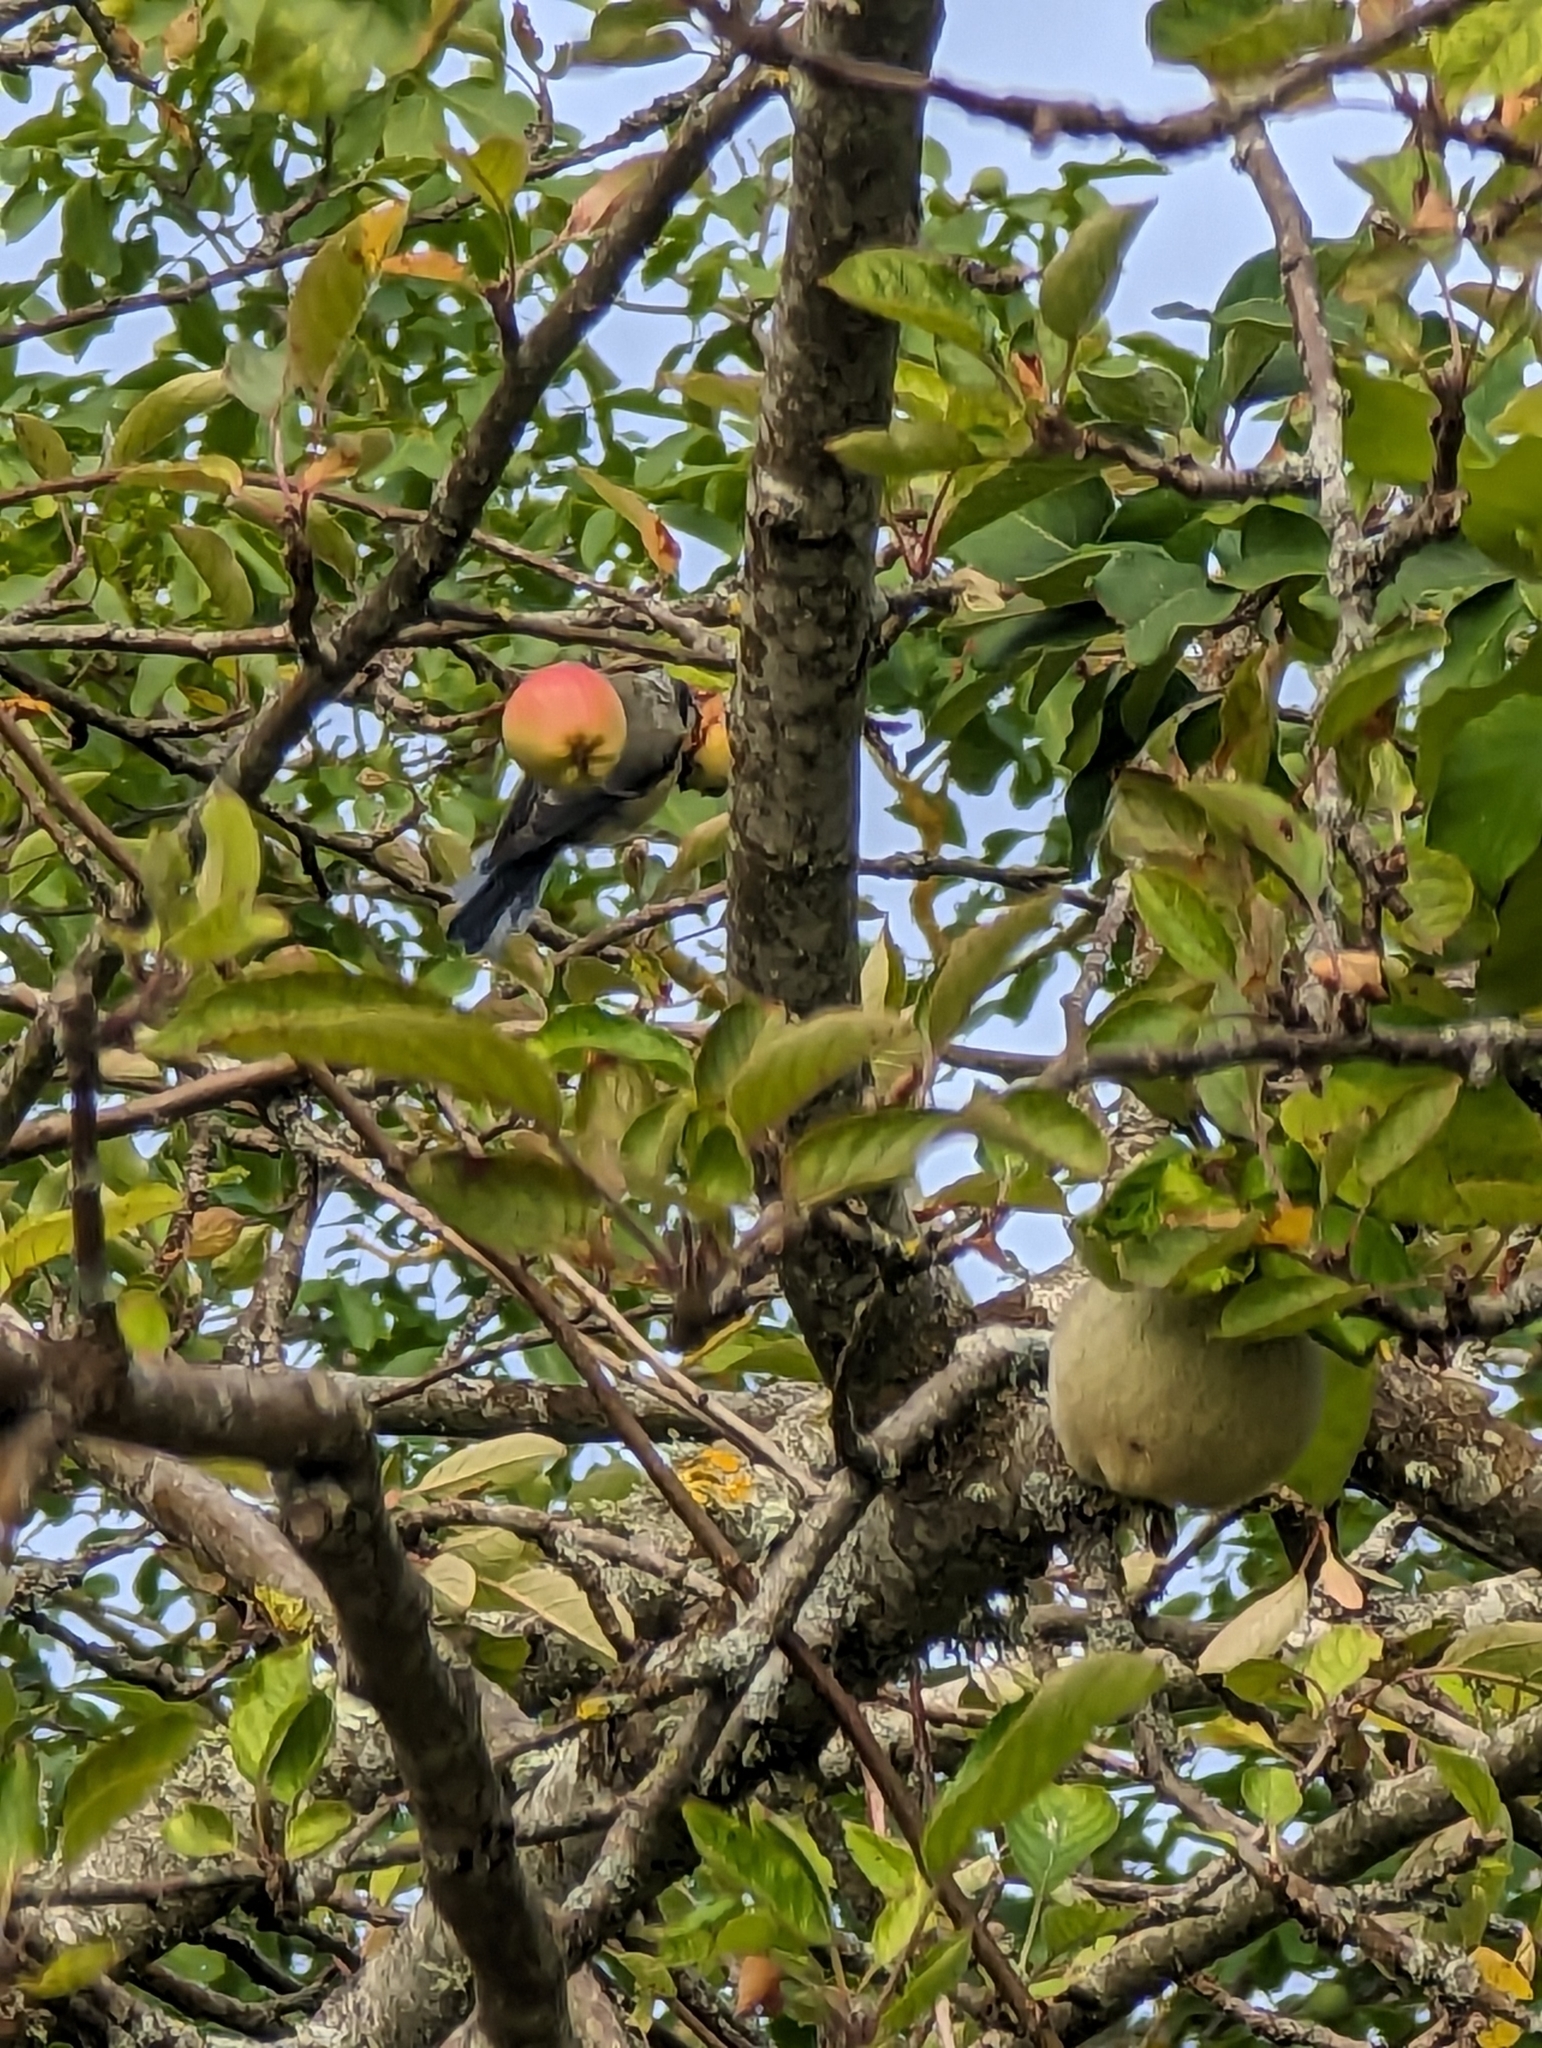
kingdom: Animalia
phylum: Chordata
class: Aves
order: Passeriformes
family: Paridae
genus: Parus
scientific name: Parus major
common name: Great tit
